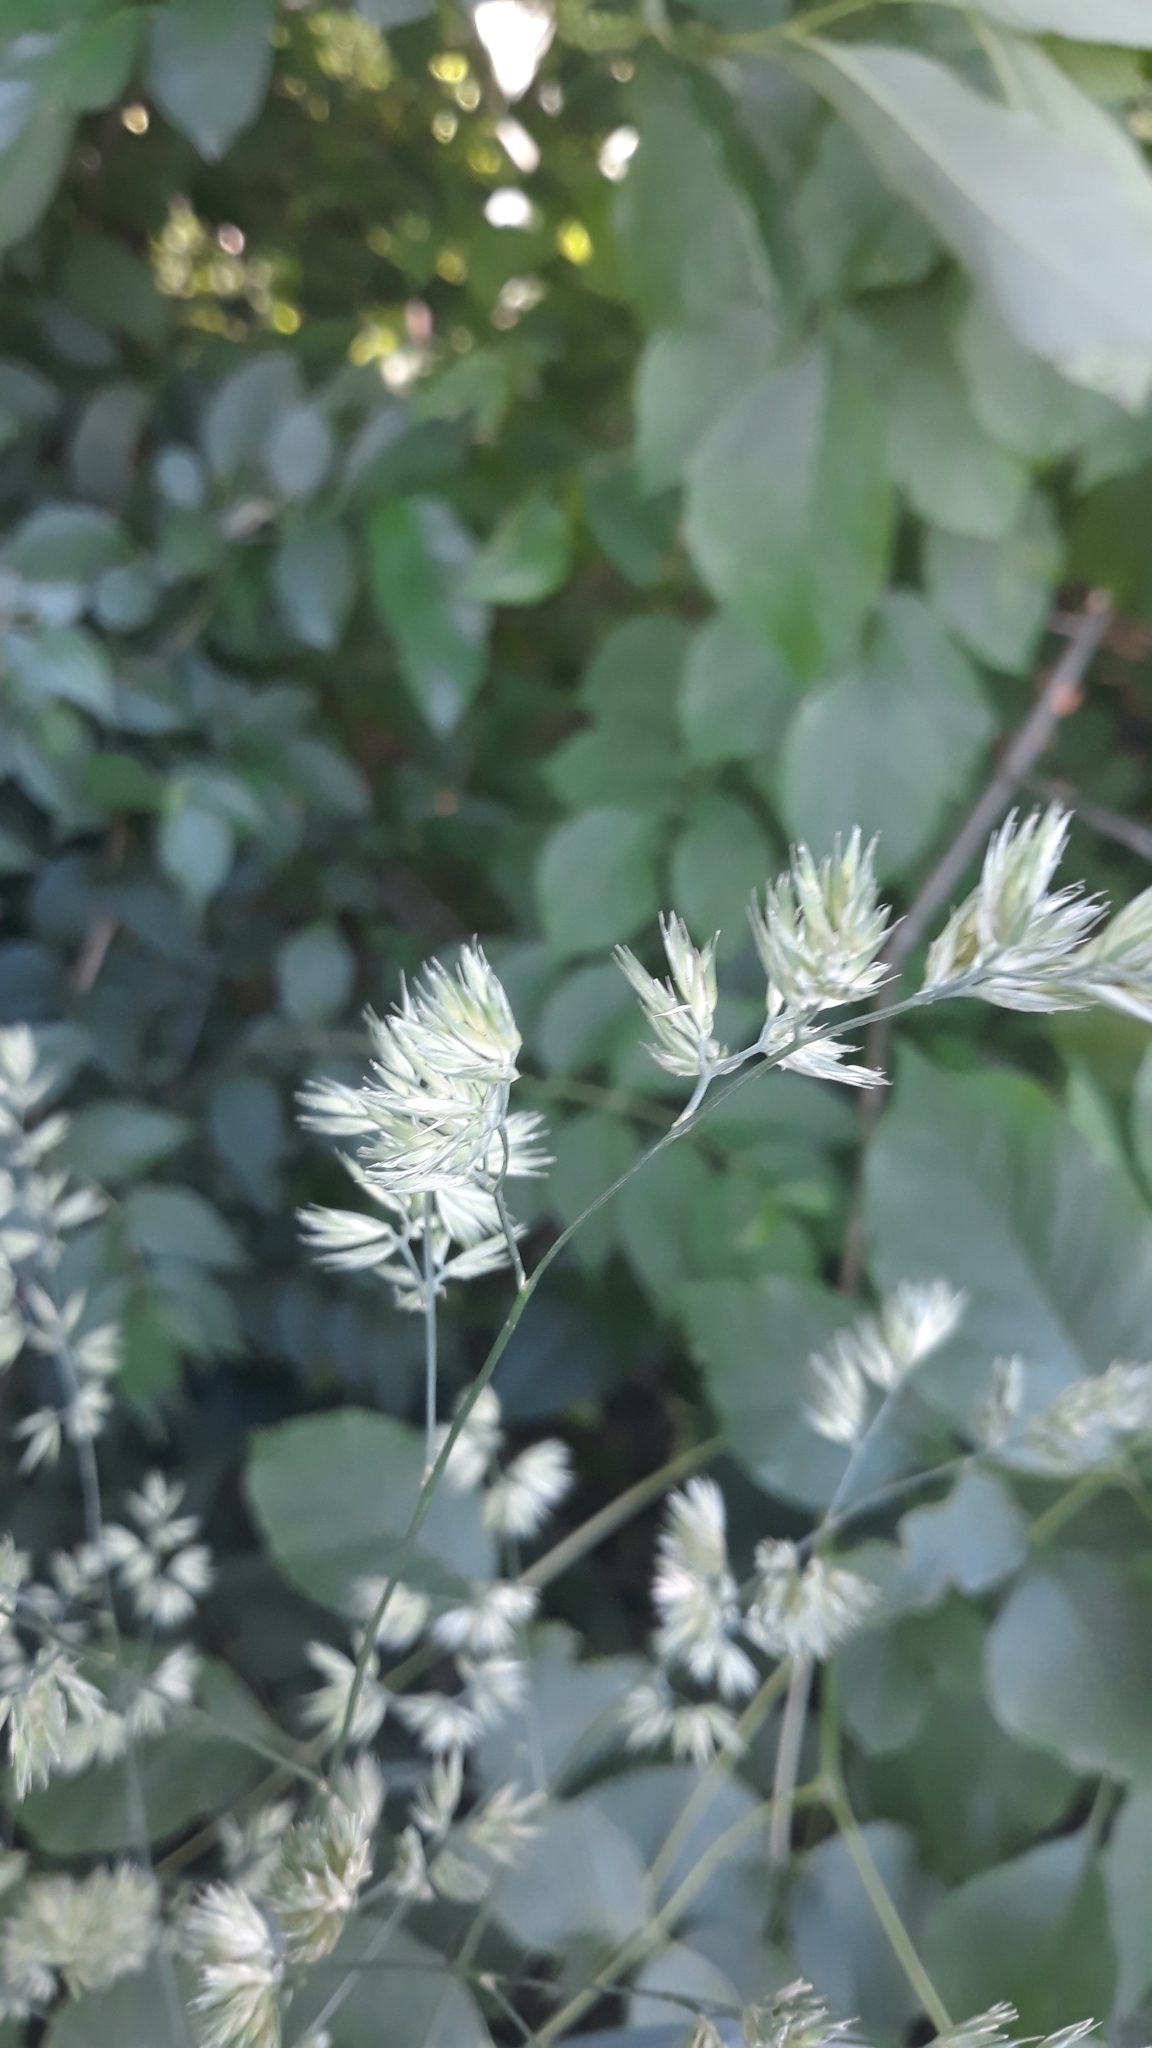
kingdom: Plantae
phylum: Tracheophyta
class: Liliopsida
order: Poales
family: Poaceae
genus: Dactylis
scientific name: Dactylis glomerata
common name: Orchardgrass
